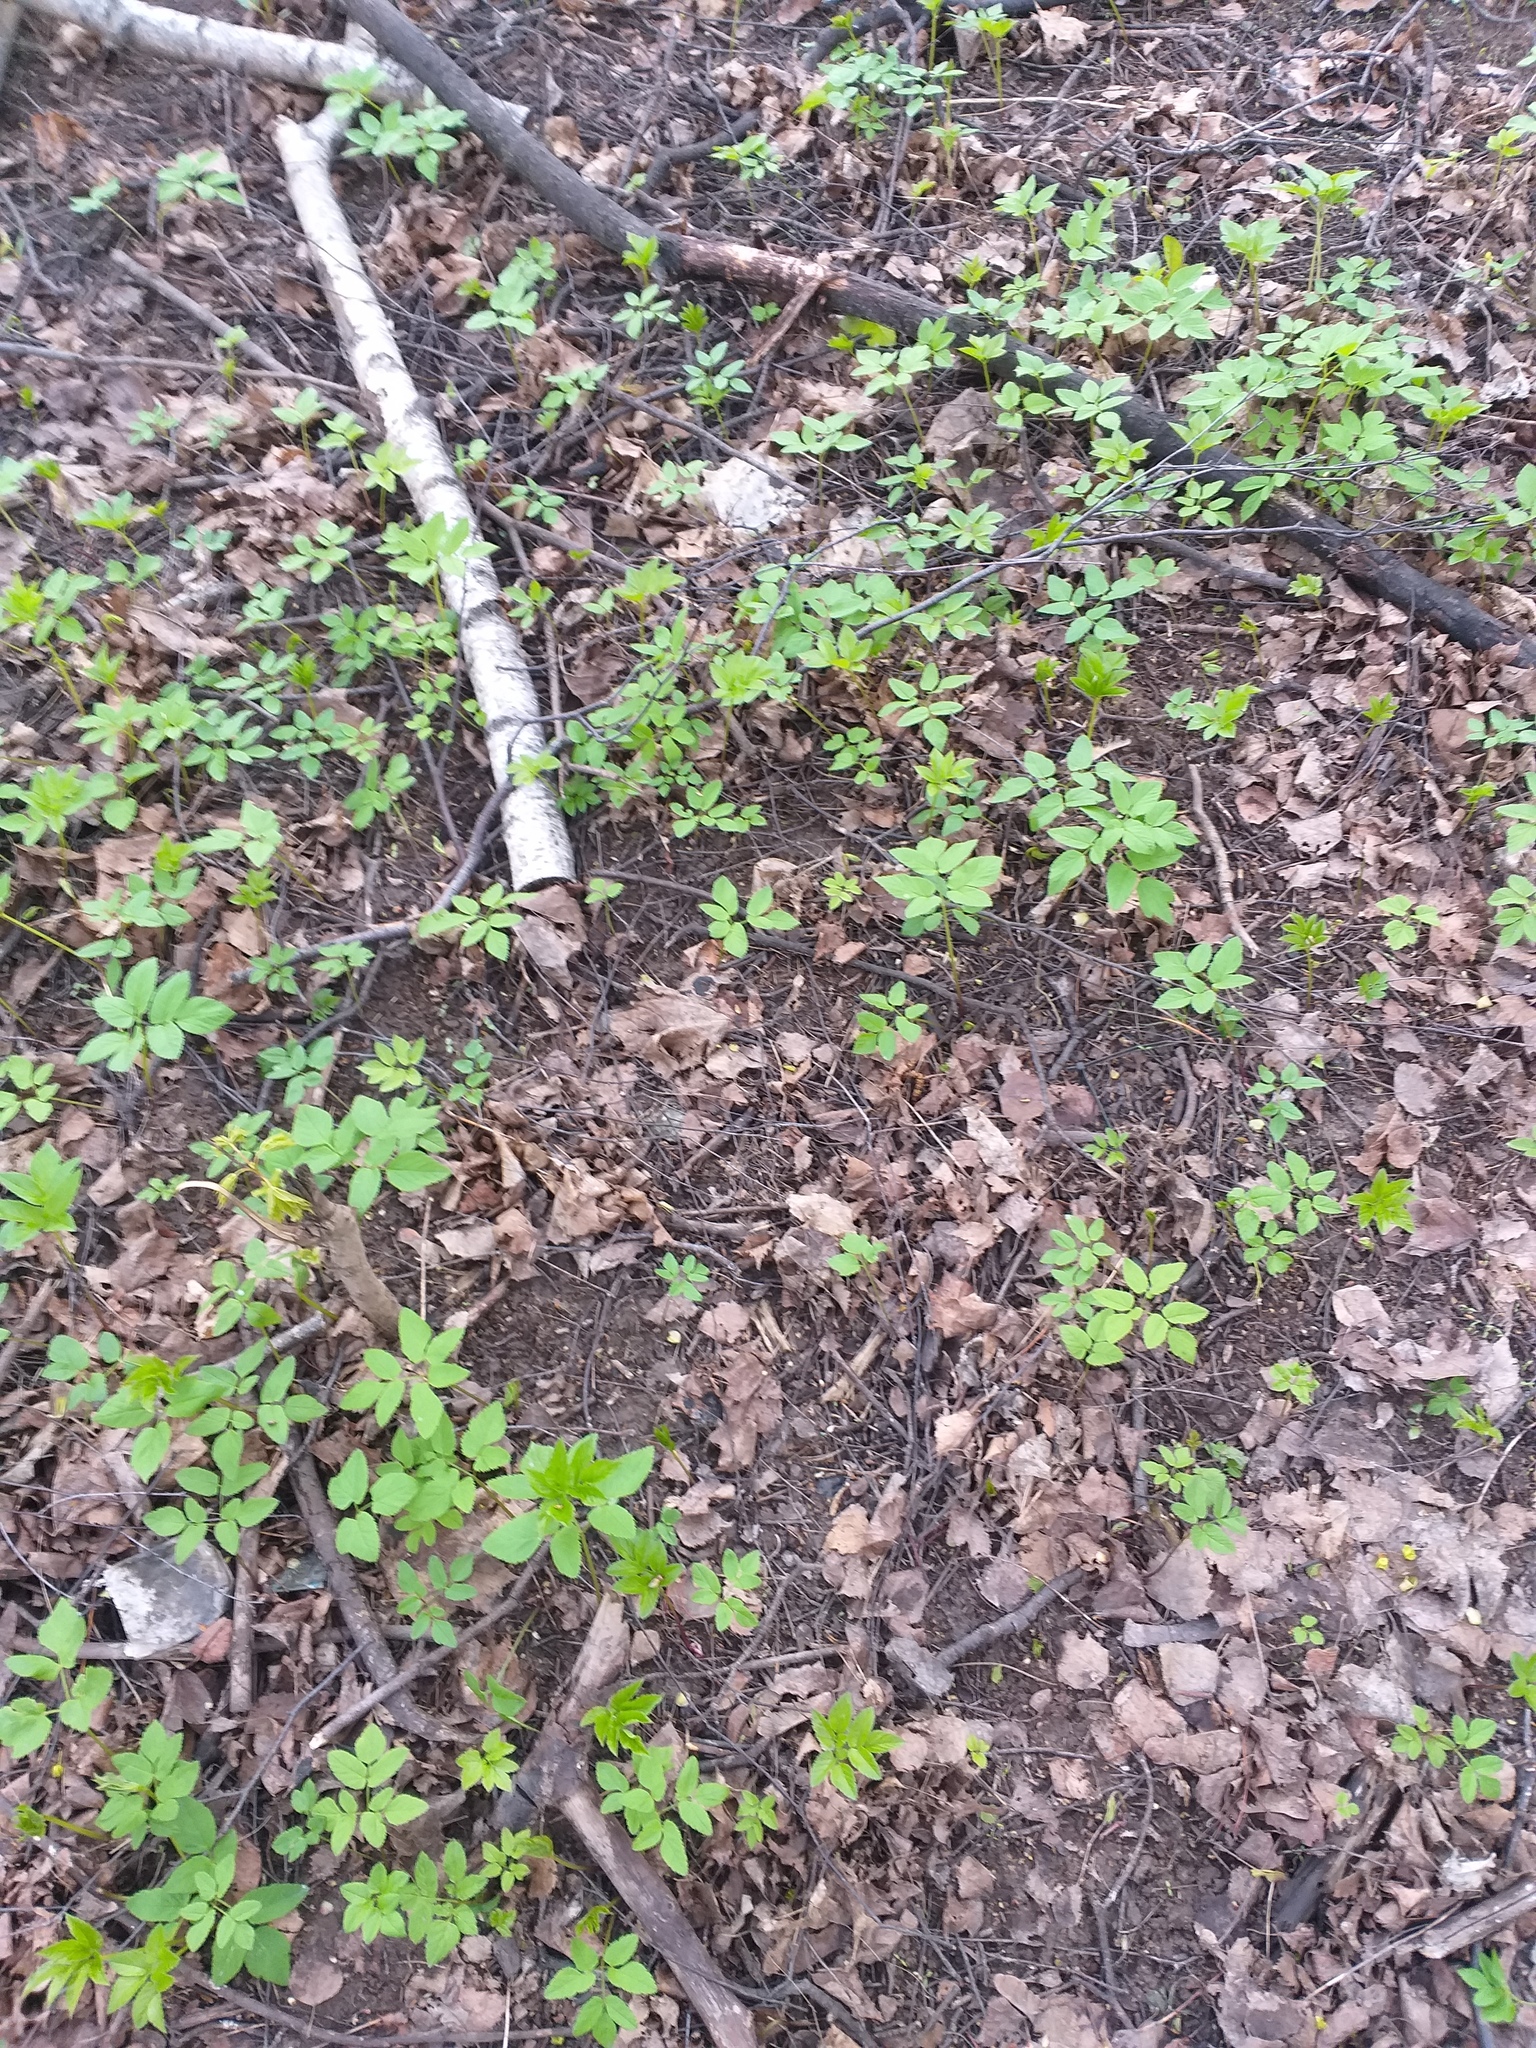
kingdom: Plantae
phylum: Tracheophyta
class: Magnoliopsida
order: Apiales
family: Apiaceae
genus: Aegopodium
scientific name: Aegopodium podagraria
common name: Ground-elder
